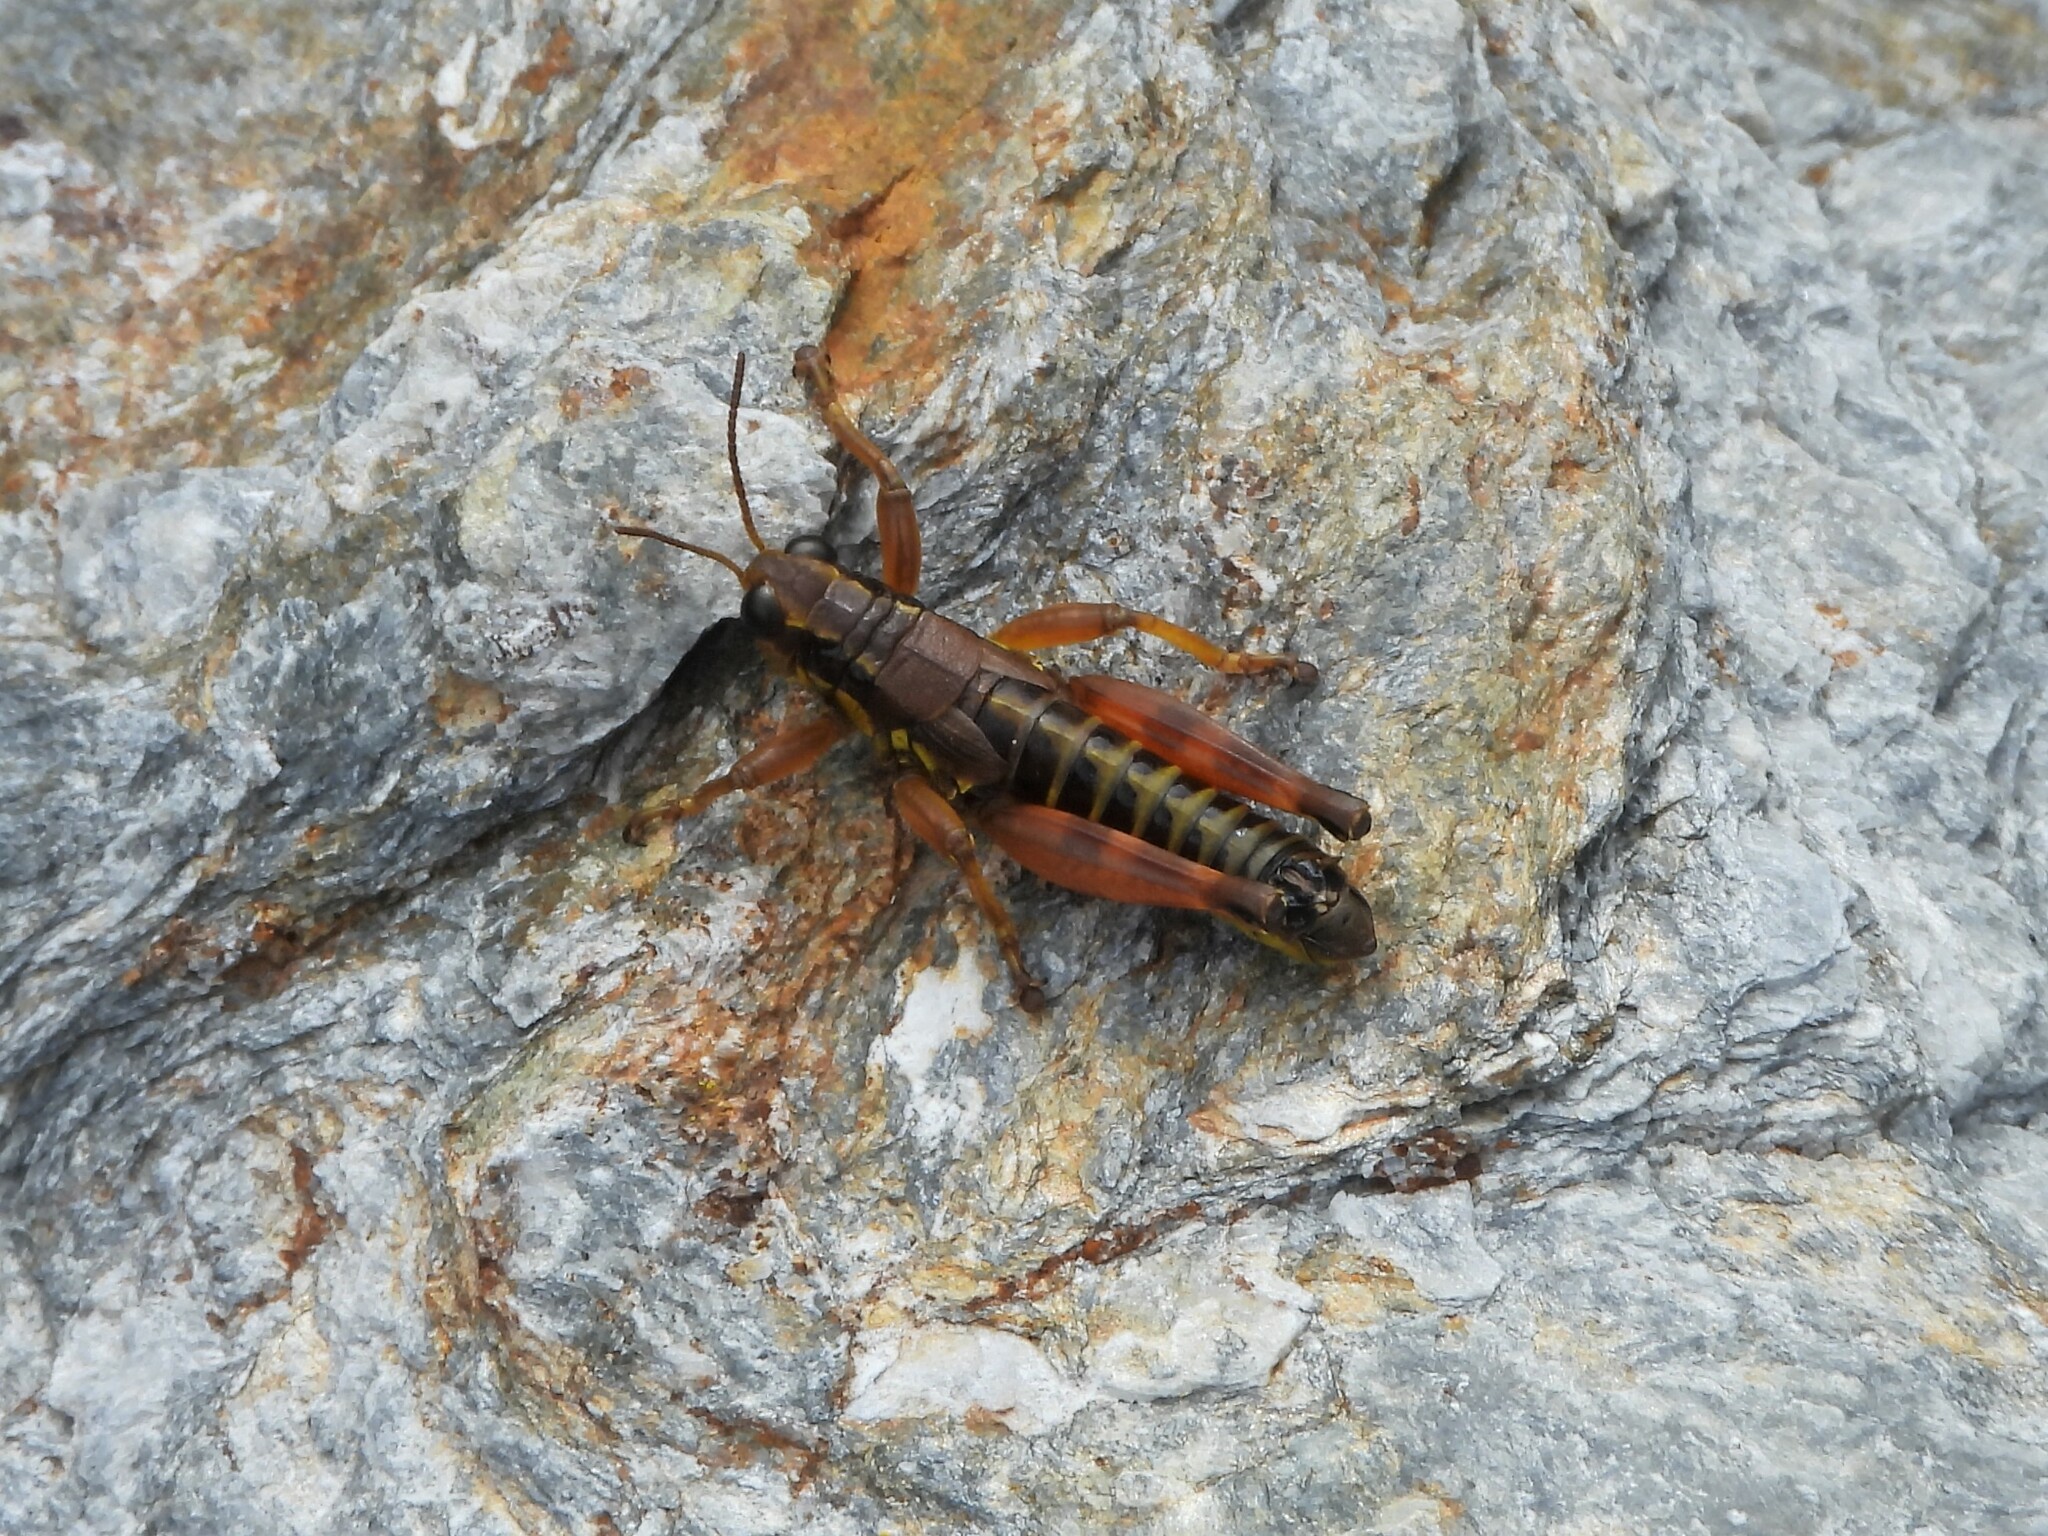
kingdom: Animalia
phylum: Arthropoda
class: Insecta
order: Orthoptera
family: Acrididae
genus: Podisma
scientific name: Podisma pedestris
